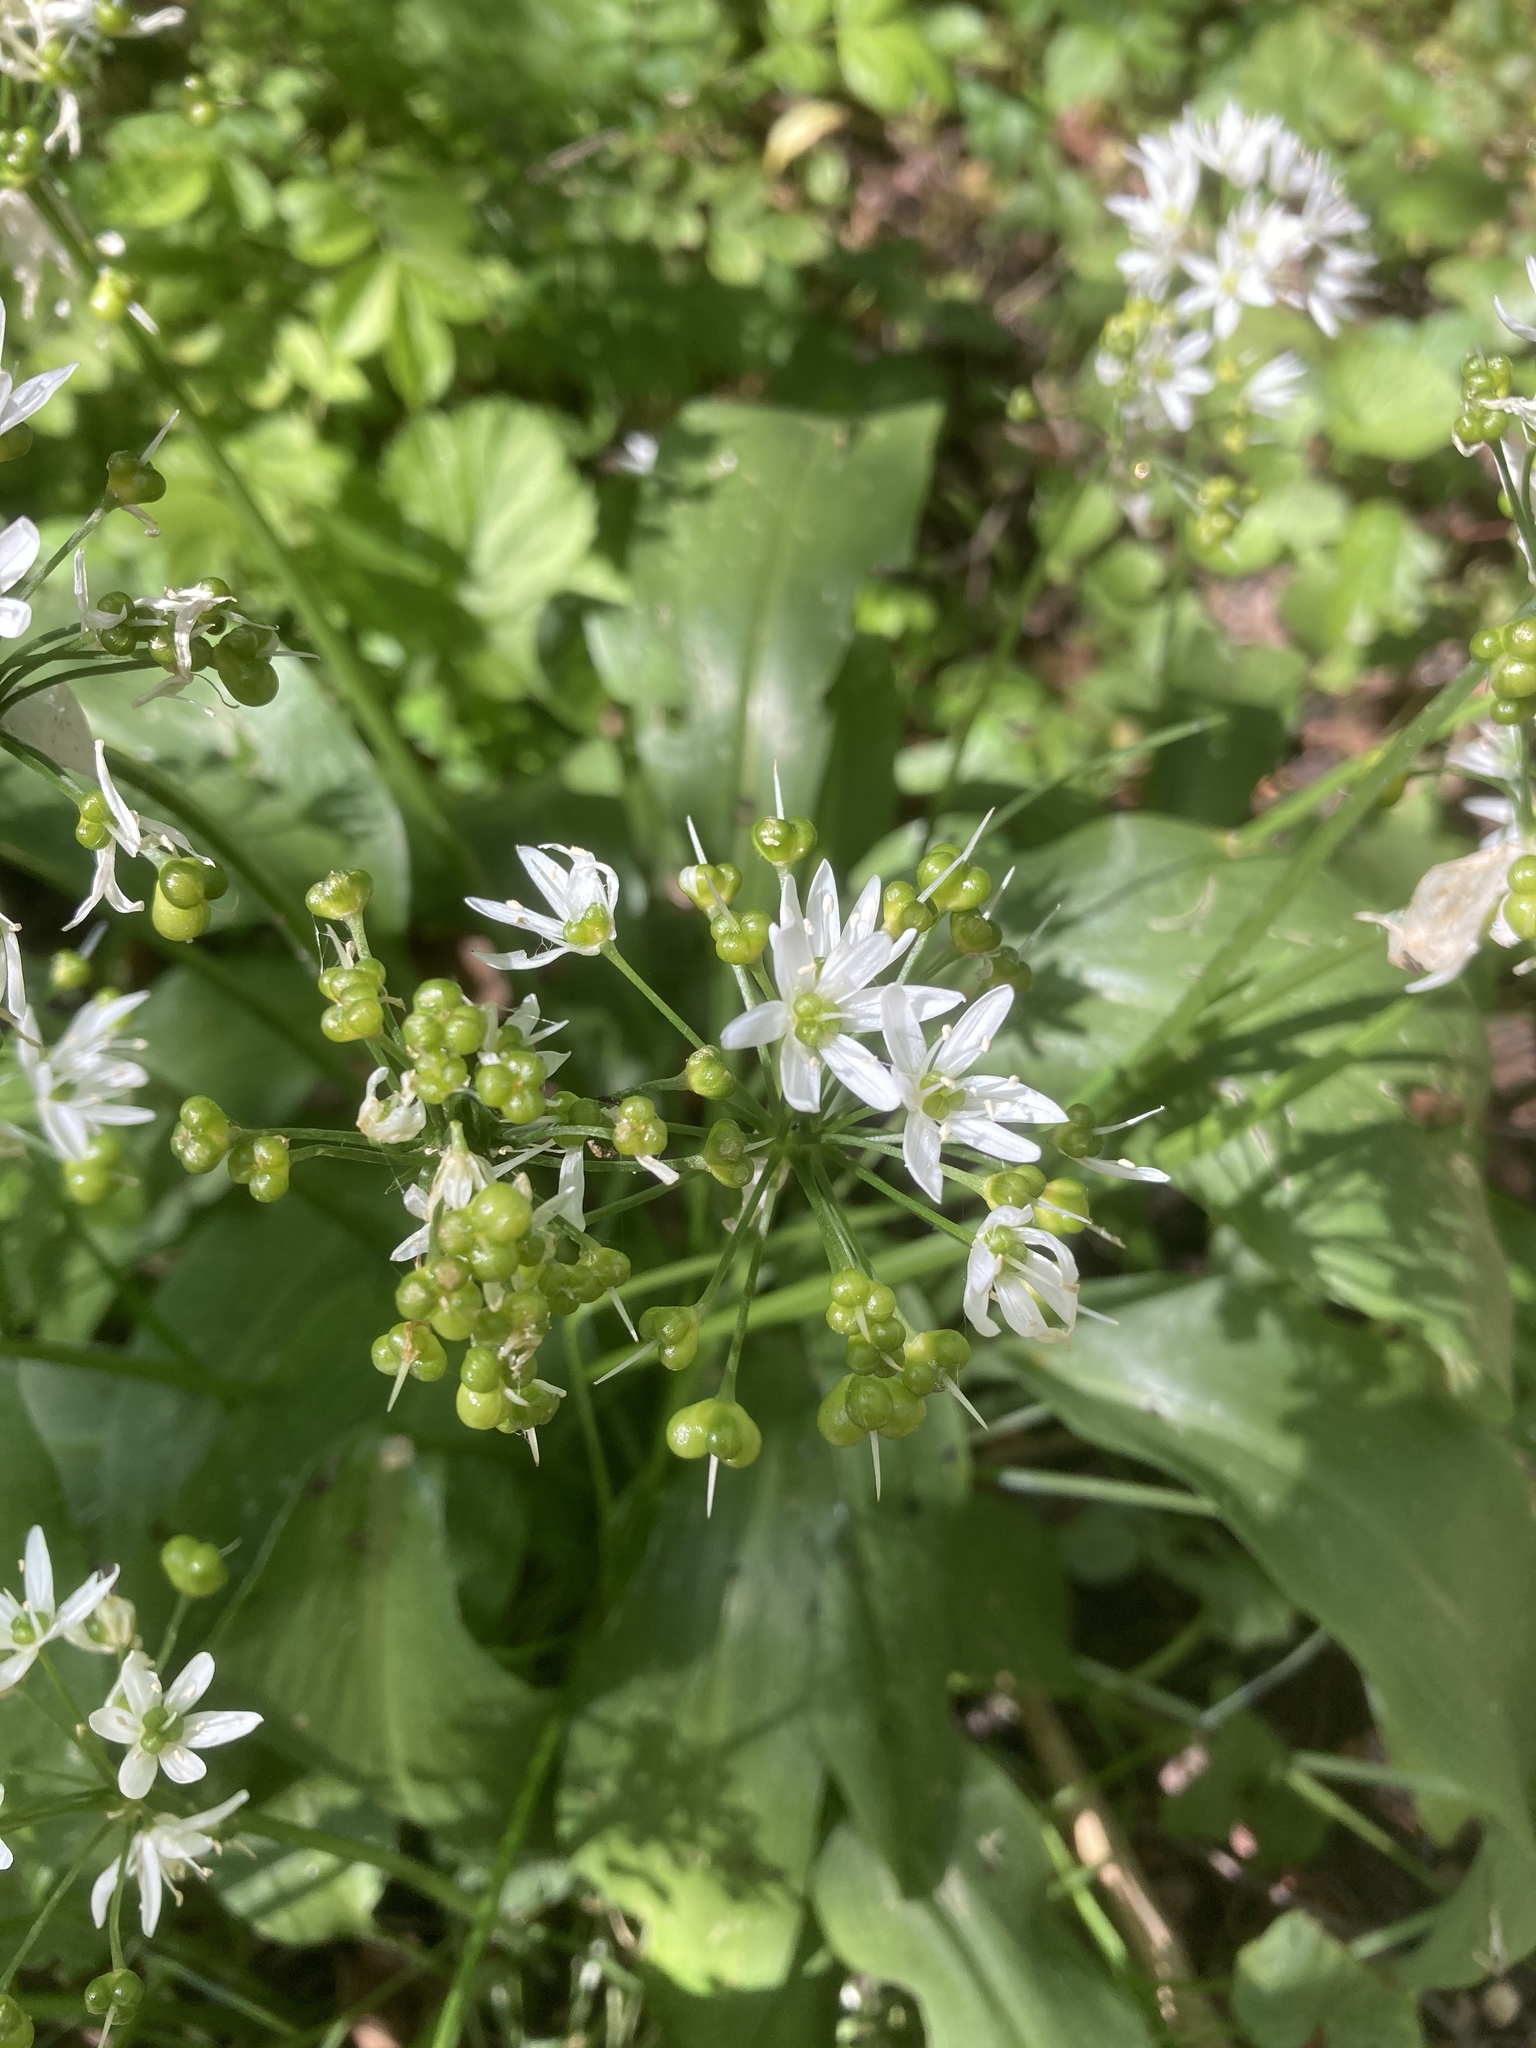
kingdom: Plantae
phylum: Tracheophyta
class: Liliopsida
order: Asparagales
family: Amaryllidaceae
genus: Allium
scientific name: Allium ursinum
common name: Ramsons
